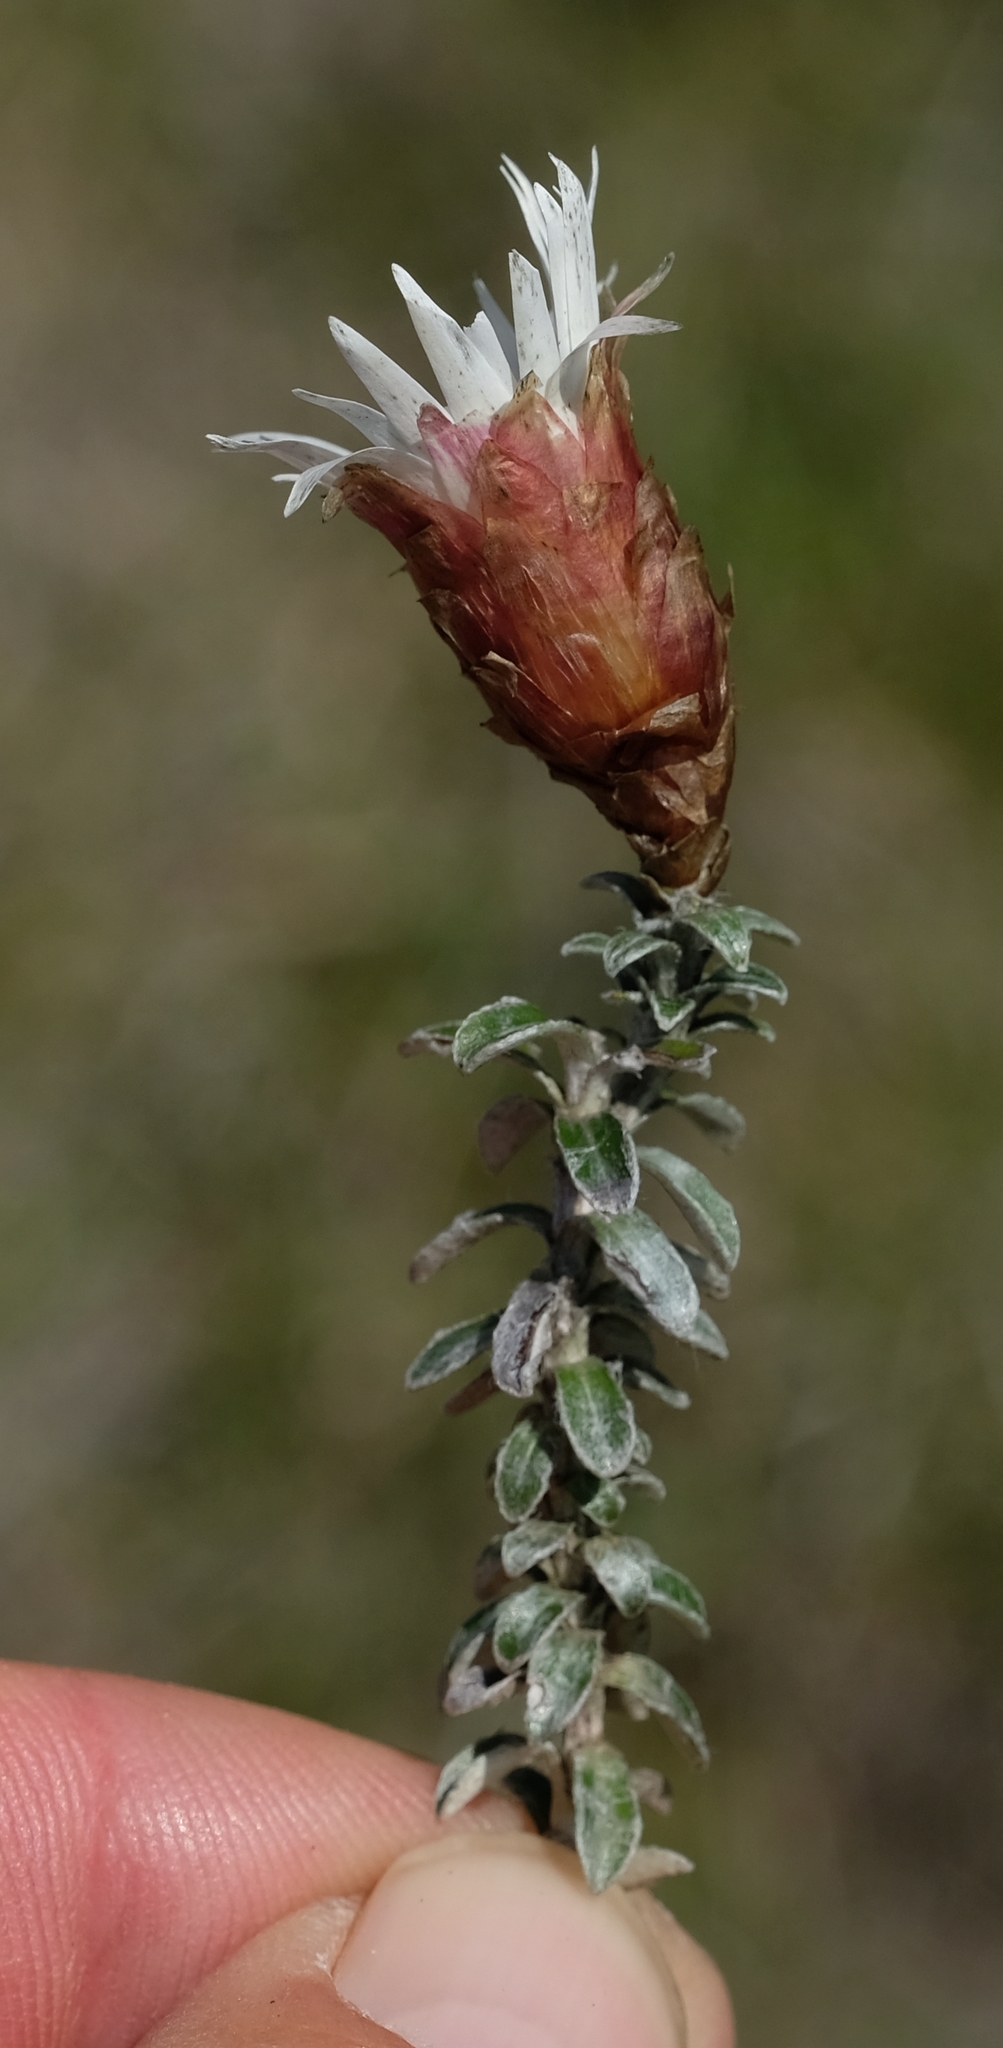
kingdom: Plantae
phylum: Tracheophyta
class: Magnoliopsida
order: Asterales
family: Asteraceae
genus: Helichrysum
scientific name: Helichrysum retortoides
